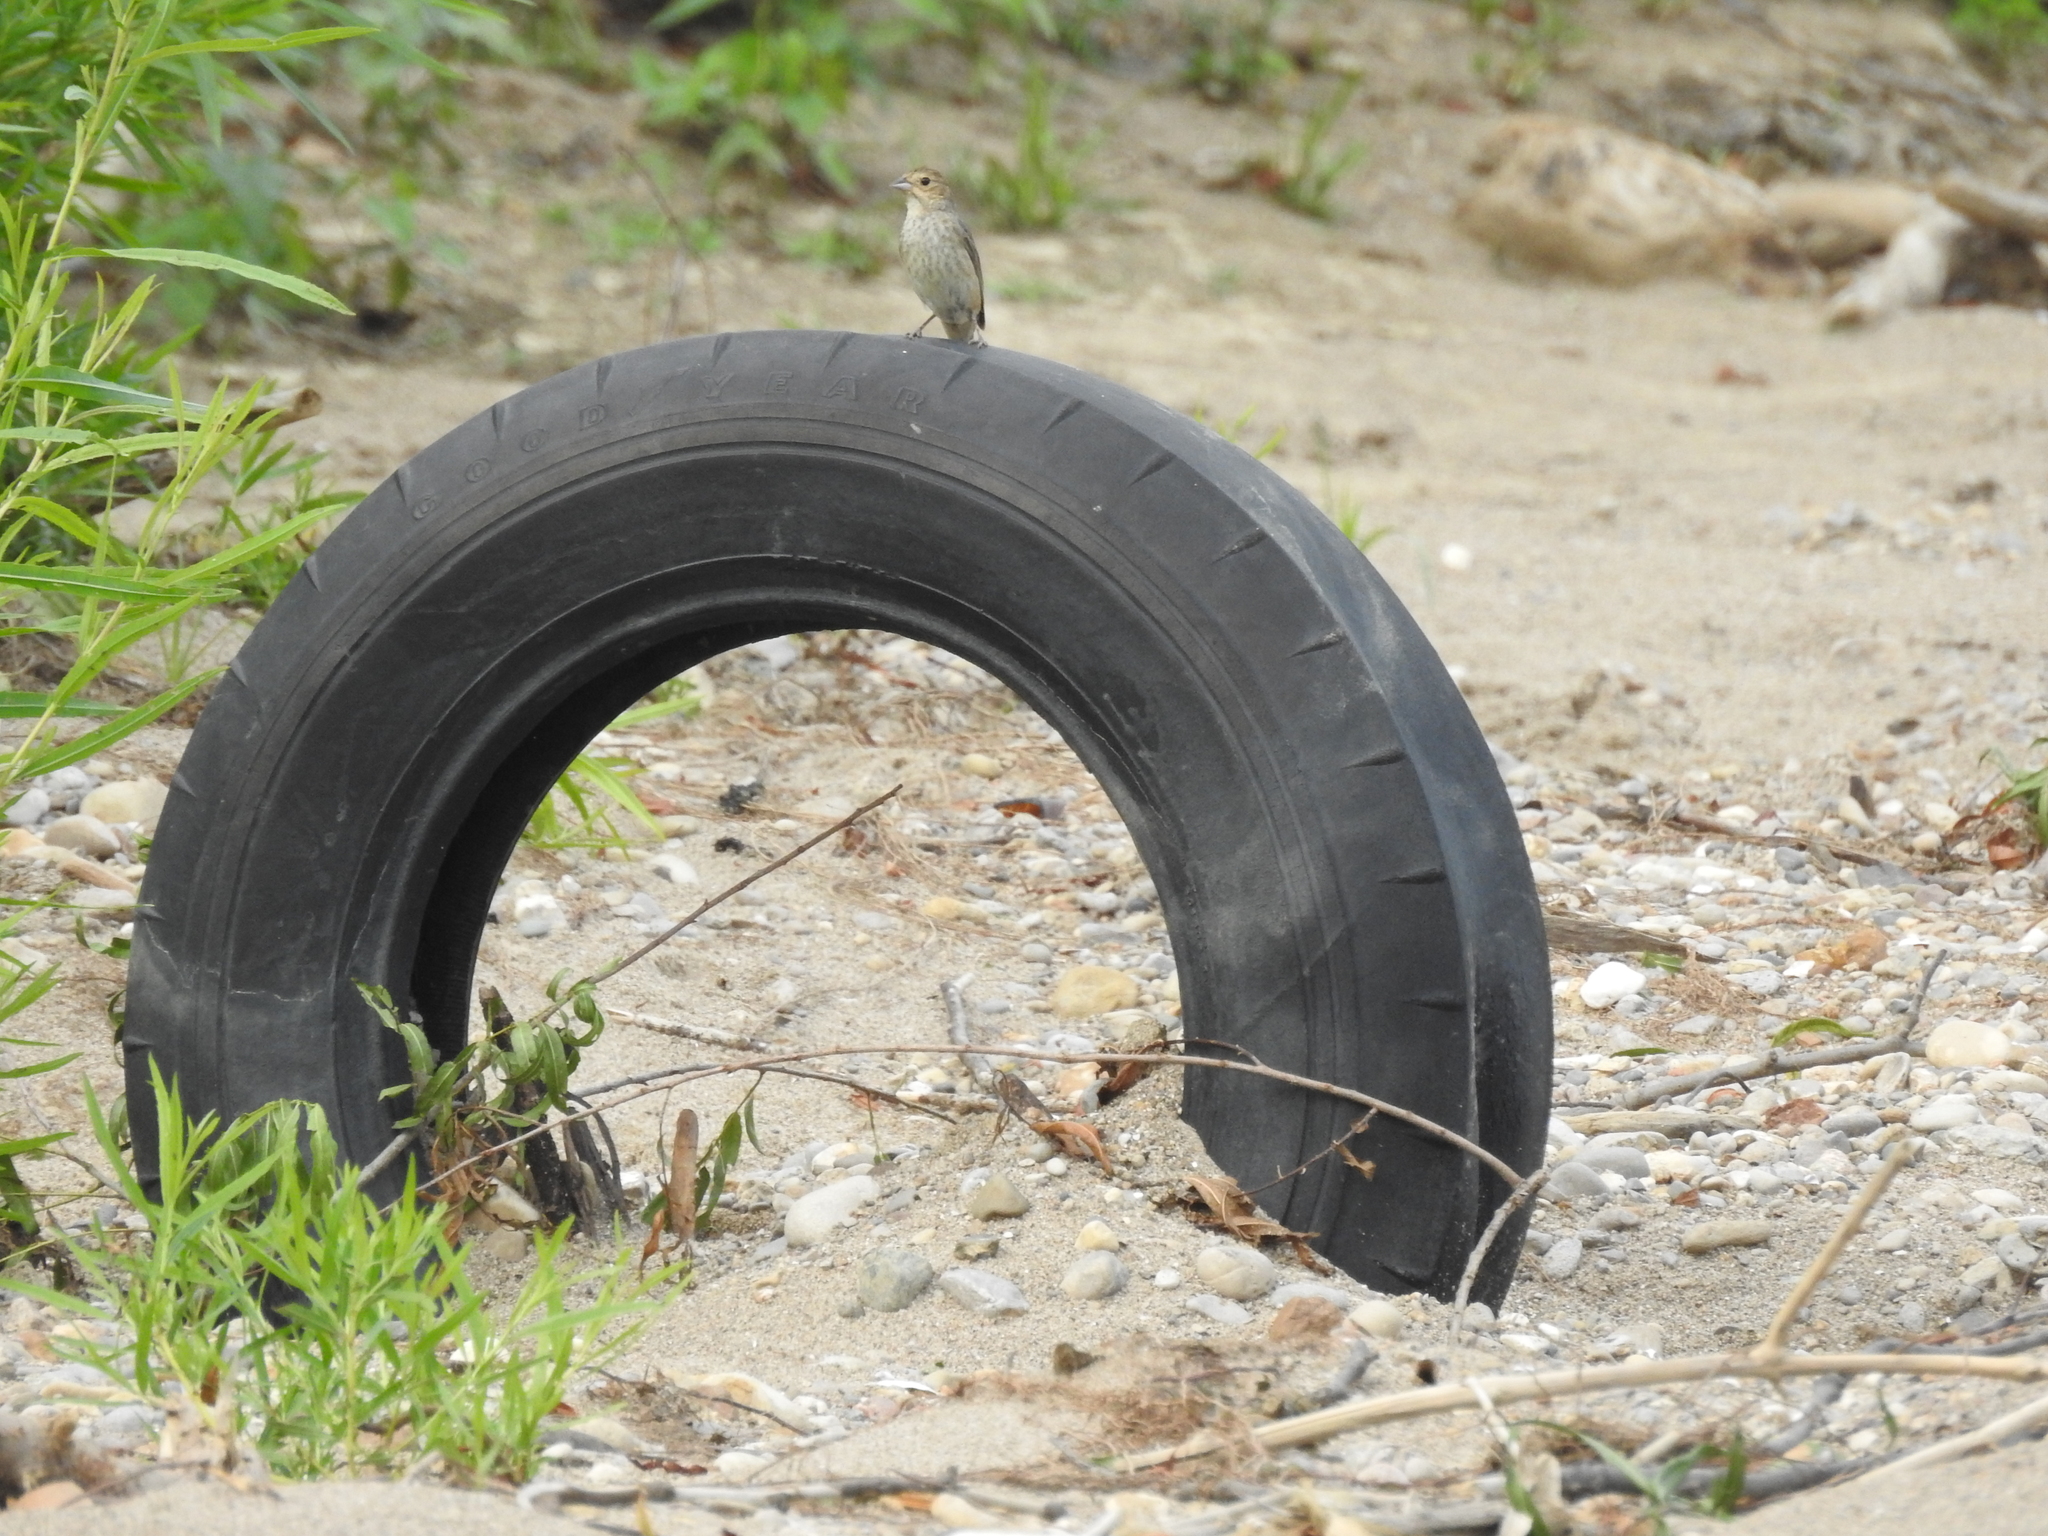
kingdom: Animalia
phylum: Chordata
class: Aves
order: Passeriformes
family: Cardinalidae
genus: Passerina
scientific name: Passerina cyanea
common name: Indigo bunting
